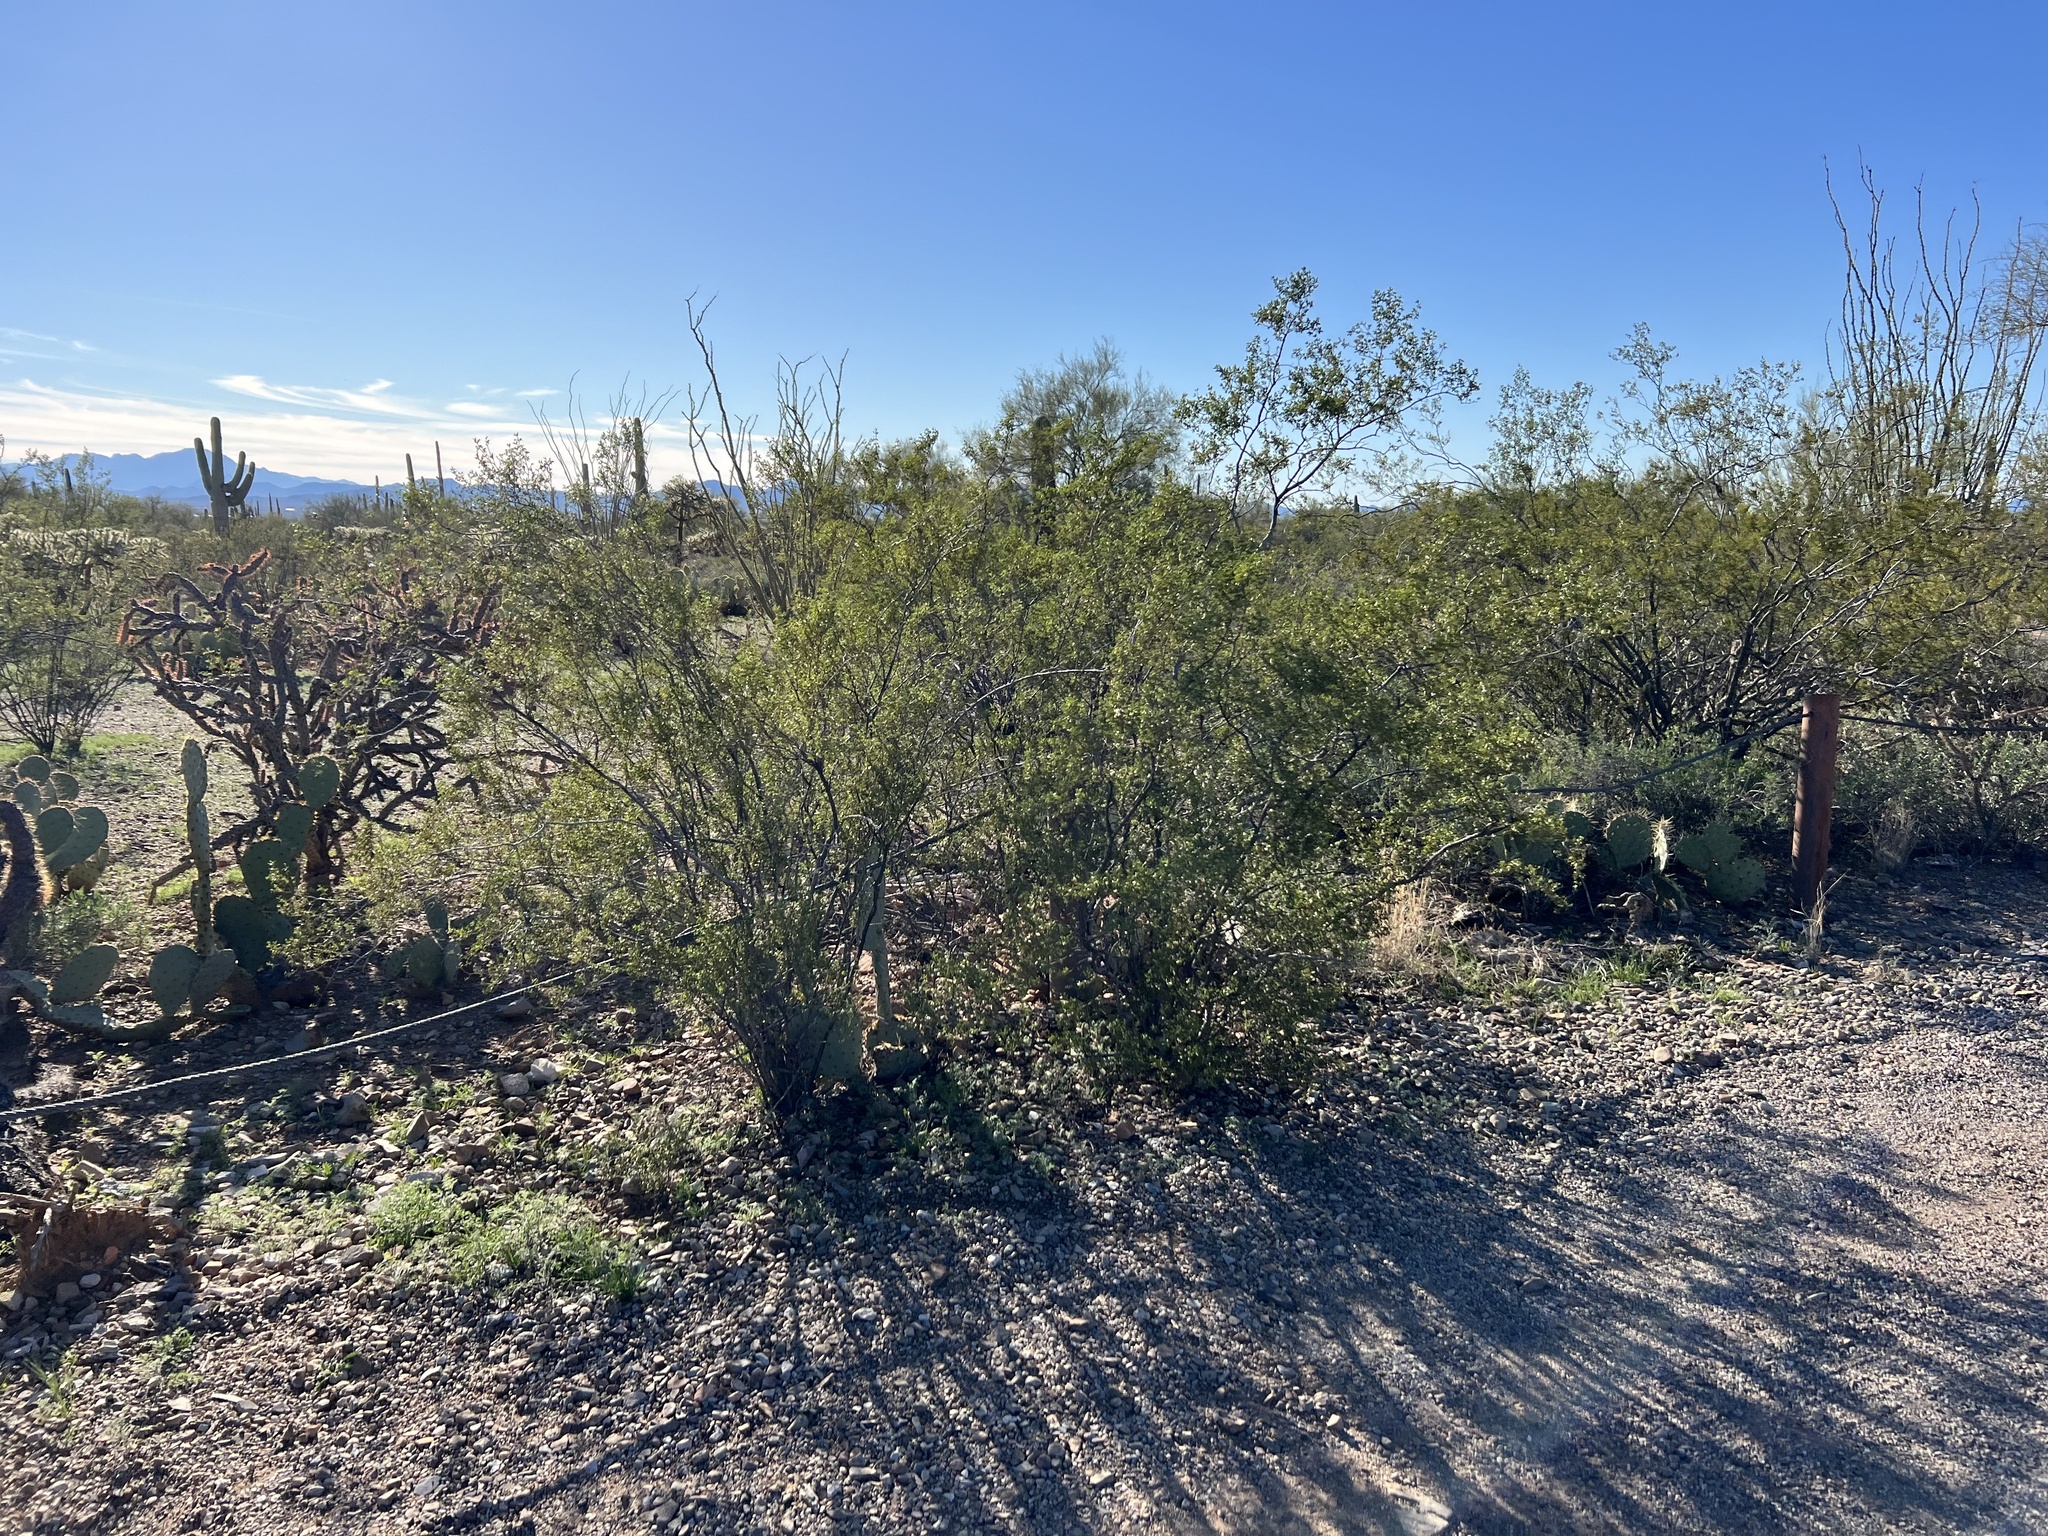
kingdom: Plantae
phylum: Tracheophyta
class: Magnoliopsida
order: Zygophyllales
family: Zygophyllaceae
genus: Larrea
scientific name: Larrea tridentata
